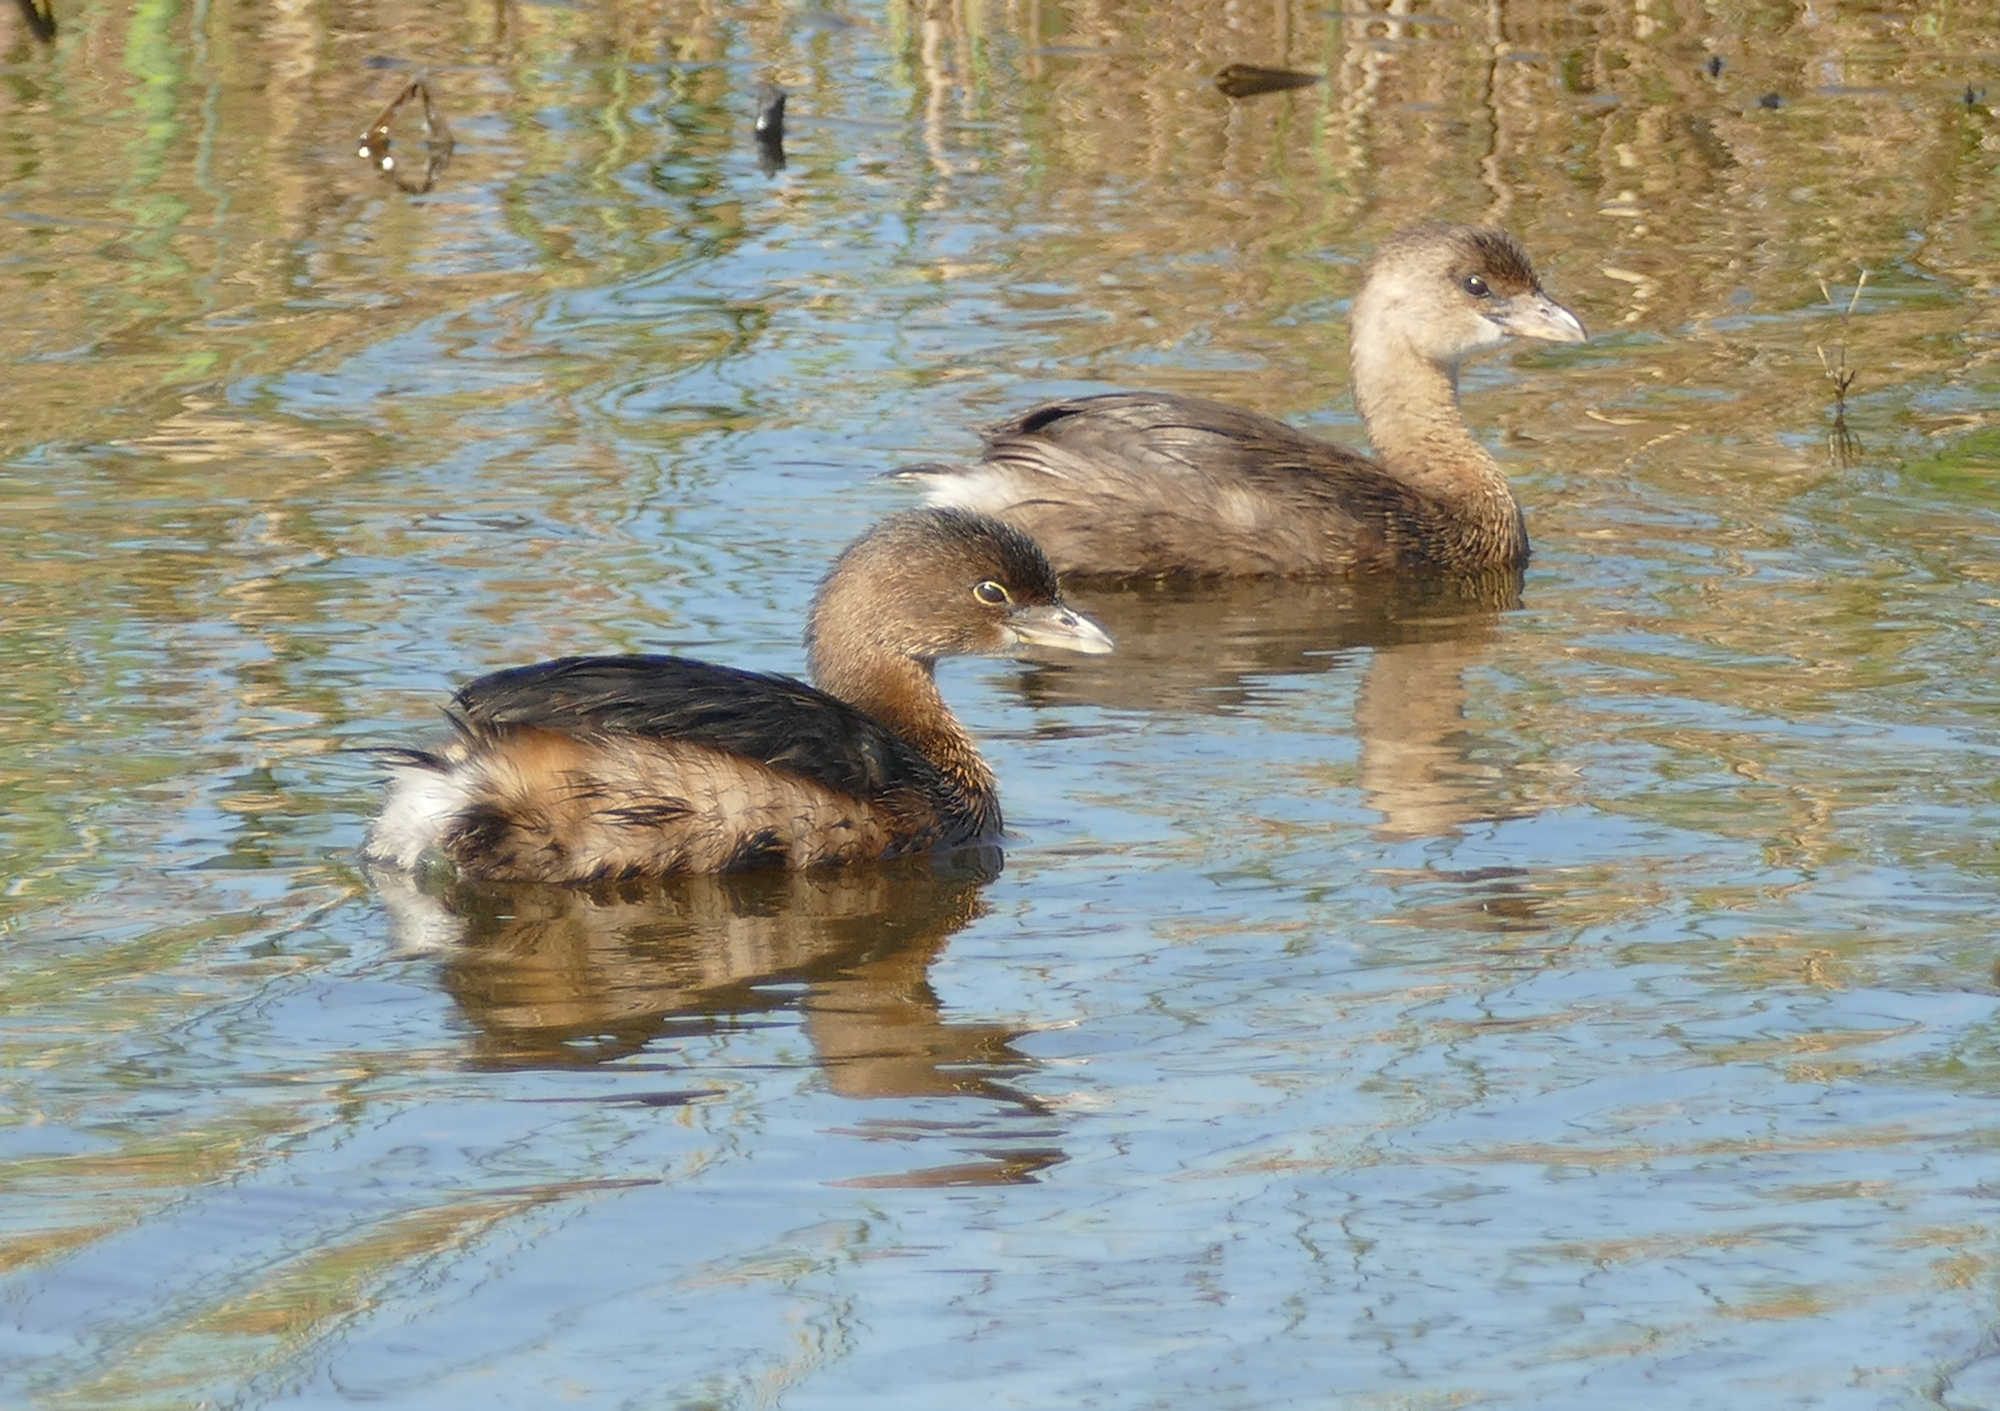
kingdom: Animalia
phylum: Chordata
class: Aves
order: Podicipediformes
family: Podicipedidae
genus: Podilymbus
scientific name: Podilymbus podiceps
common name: Pied-billed grebe
